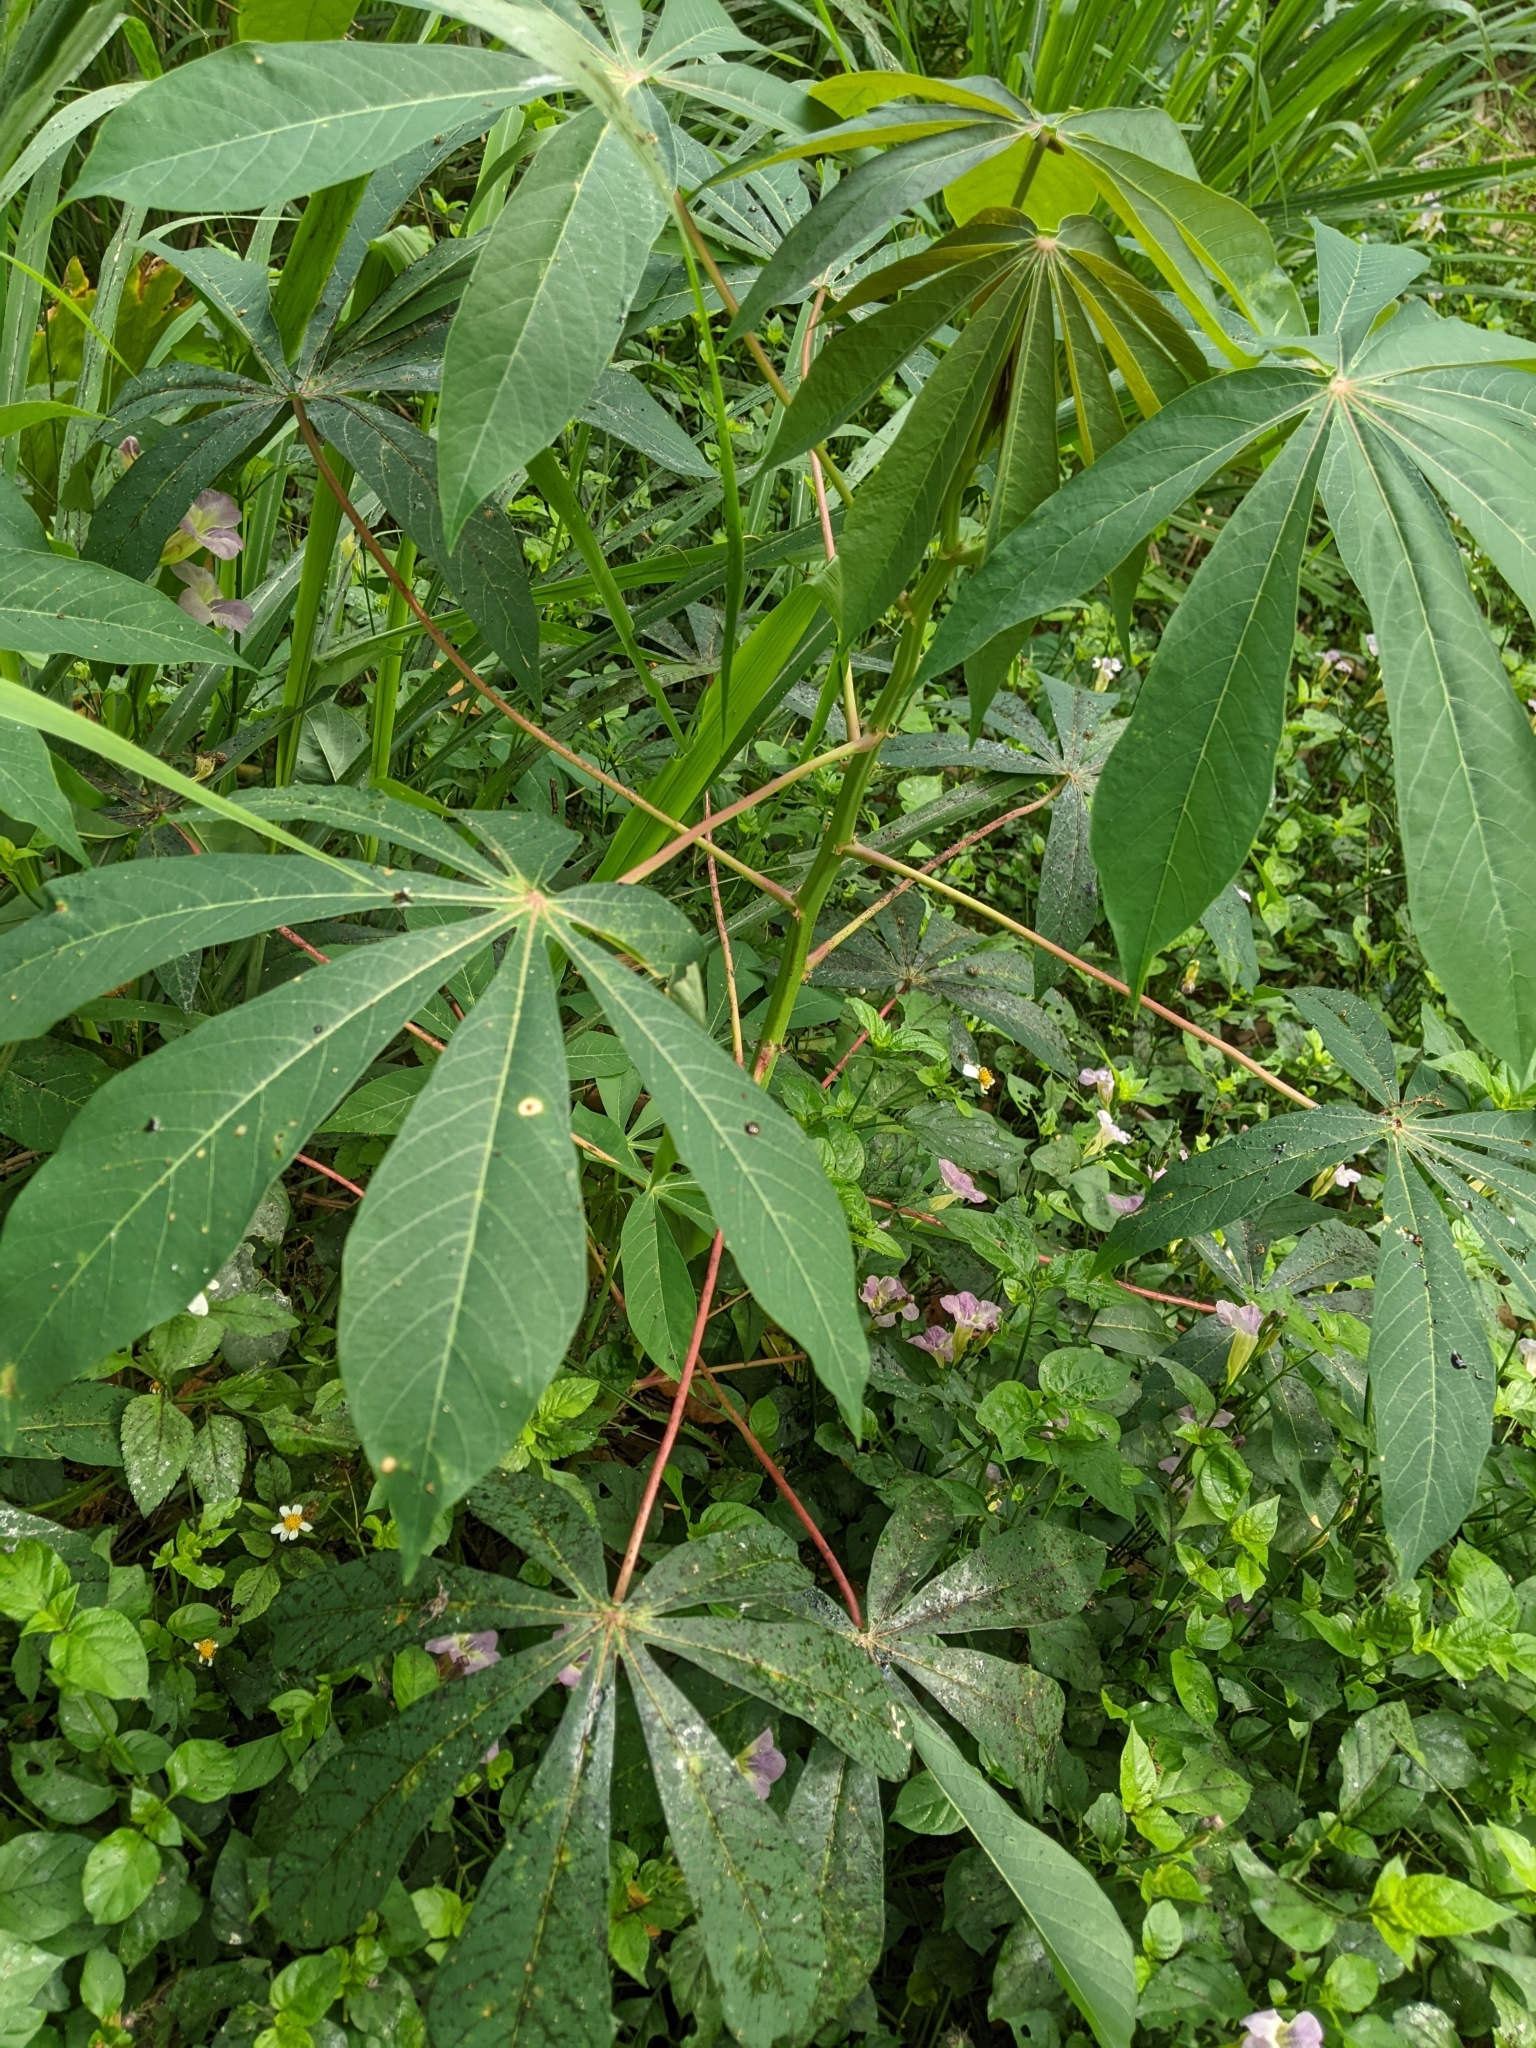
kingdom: Plantae
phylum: Tracheophyta
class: Magnoliopsida
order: Malpighiales
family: Euphorbiaceae
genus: Manihot
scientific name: Manihot esculenta
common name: Cassava
